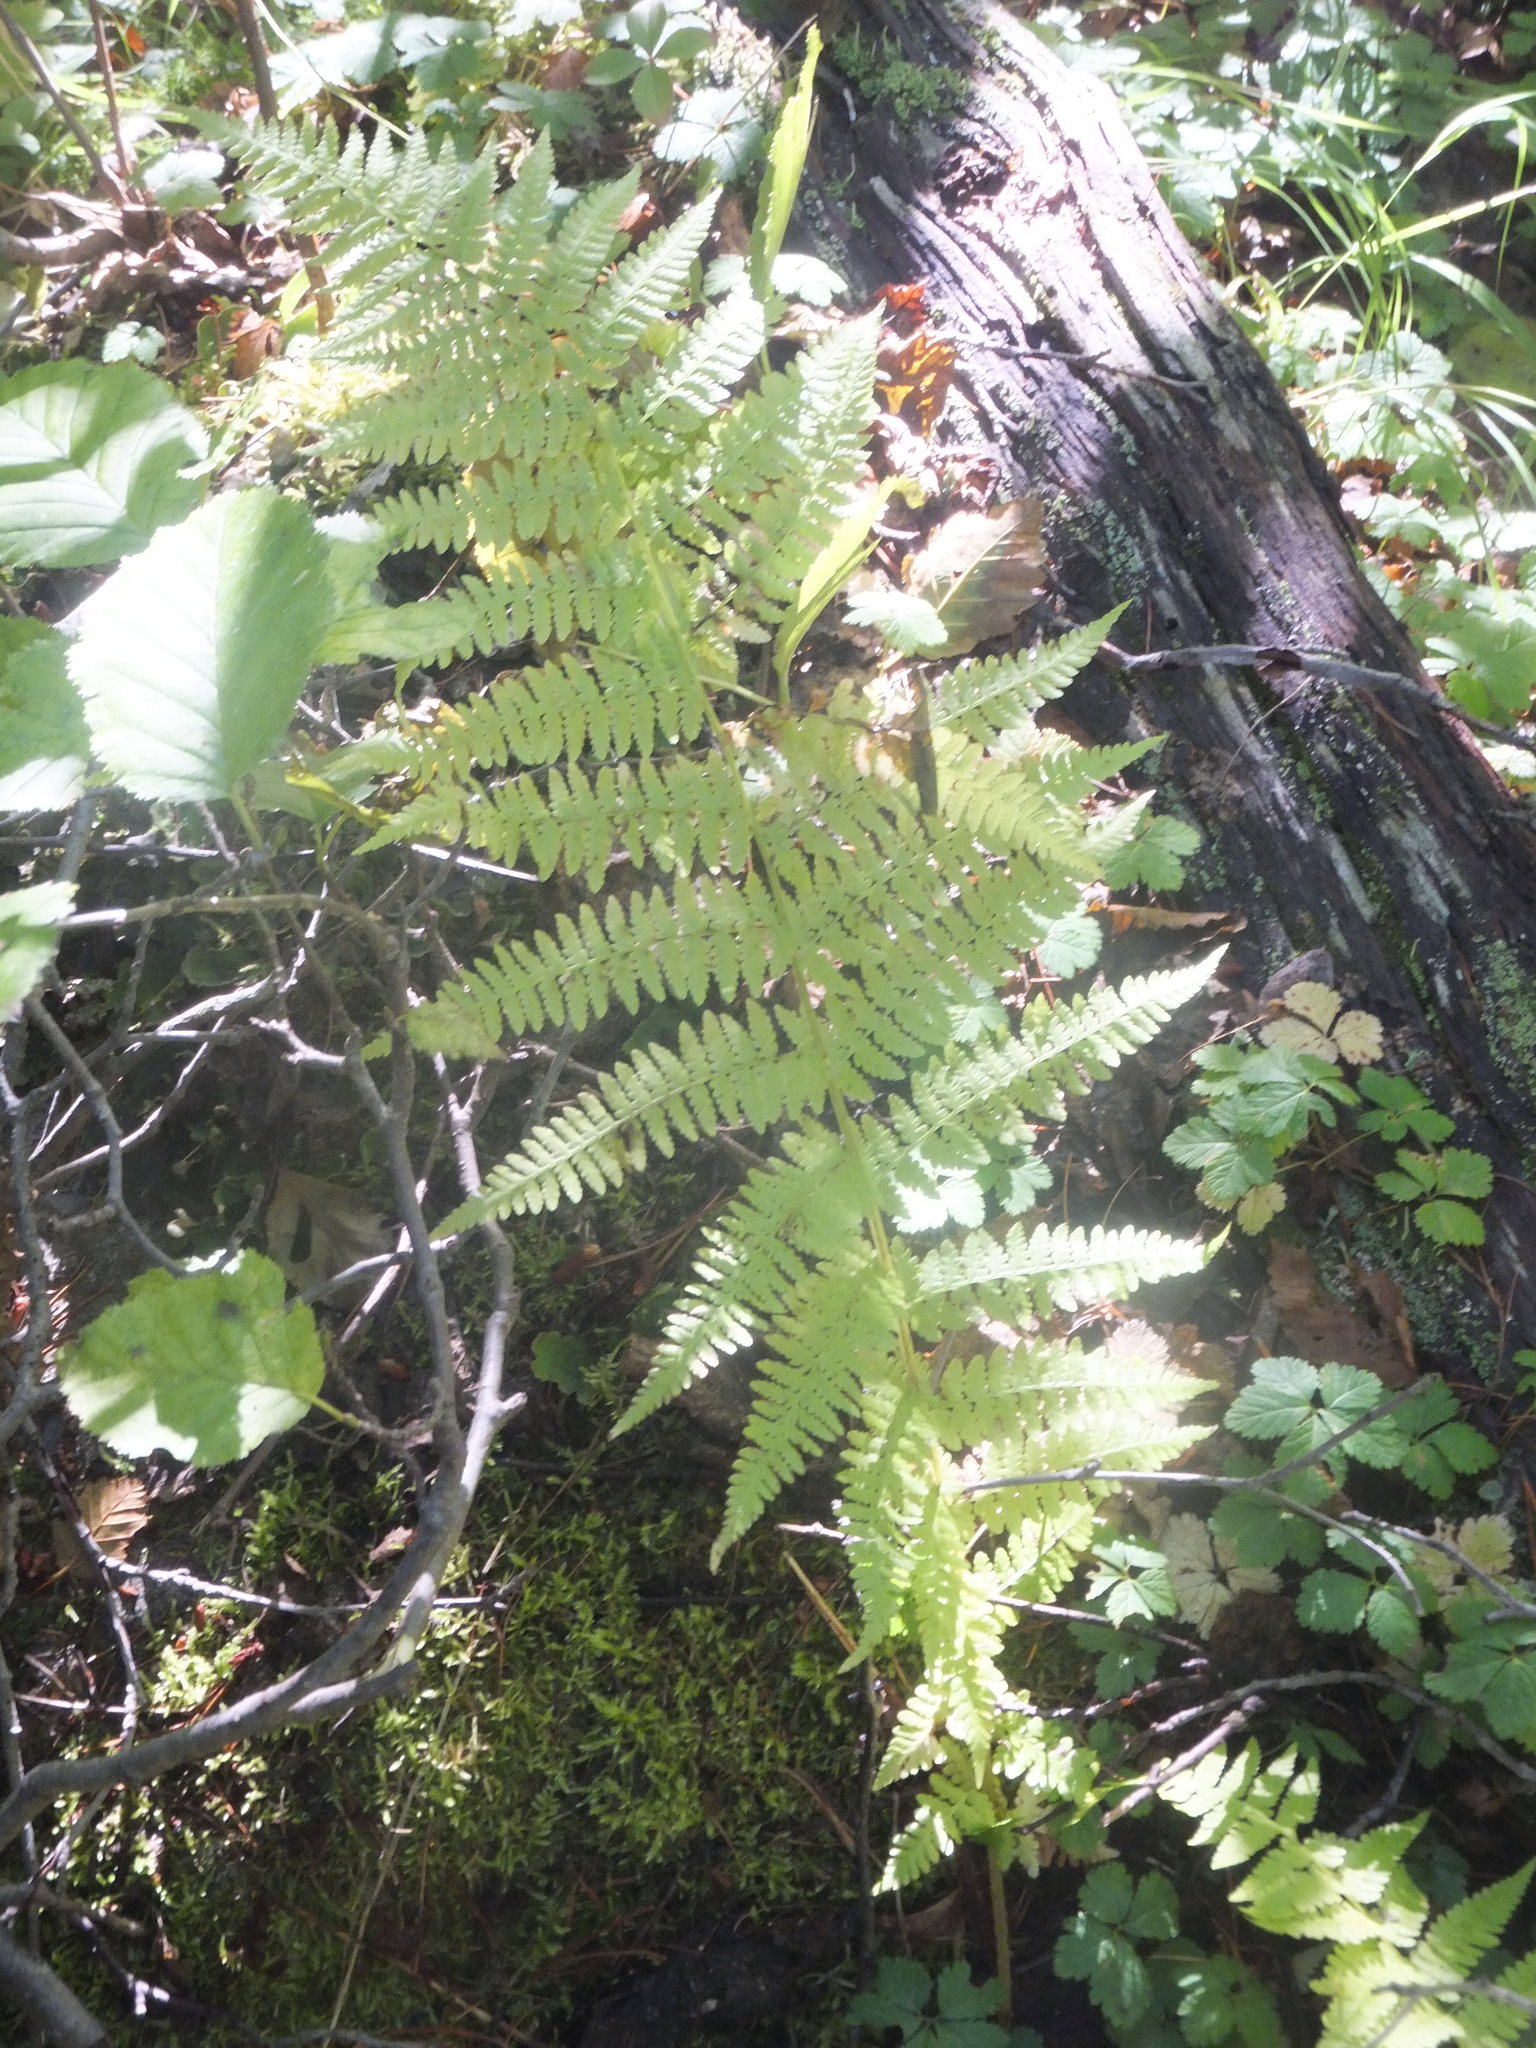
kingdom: Plantae
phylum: Tracheophyta
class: Polypodiopsida
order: Polypodiales
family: Athyriaceae
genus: Athyrium
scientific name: Athyrium filix-femina
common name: Lady fern
